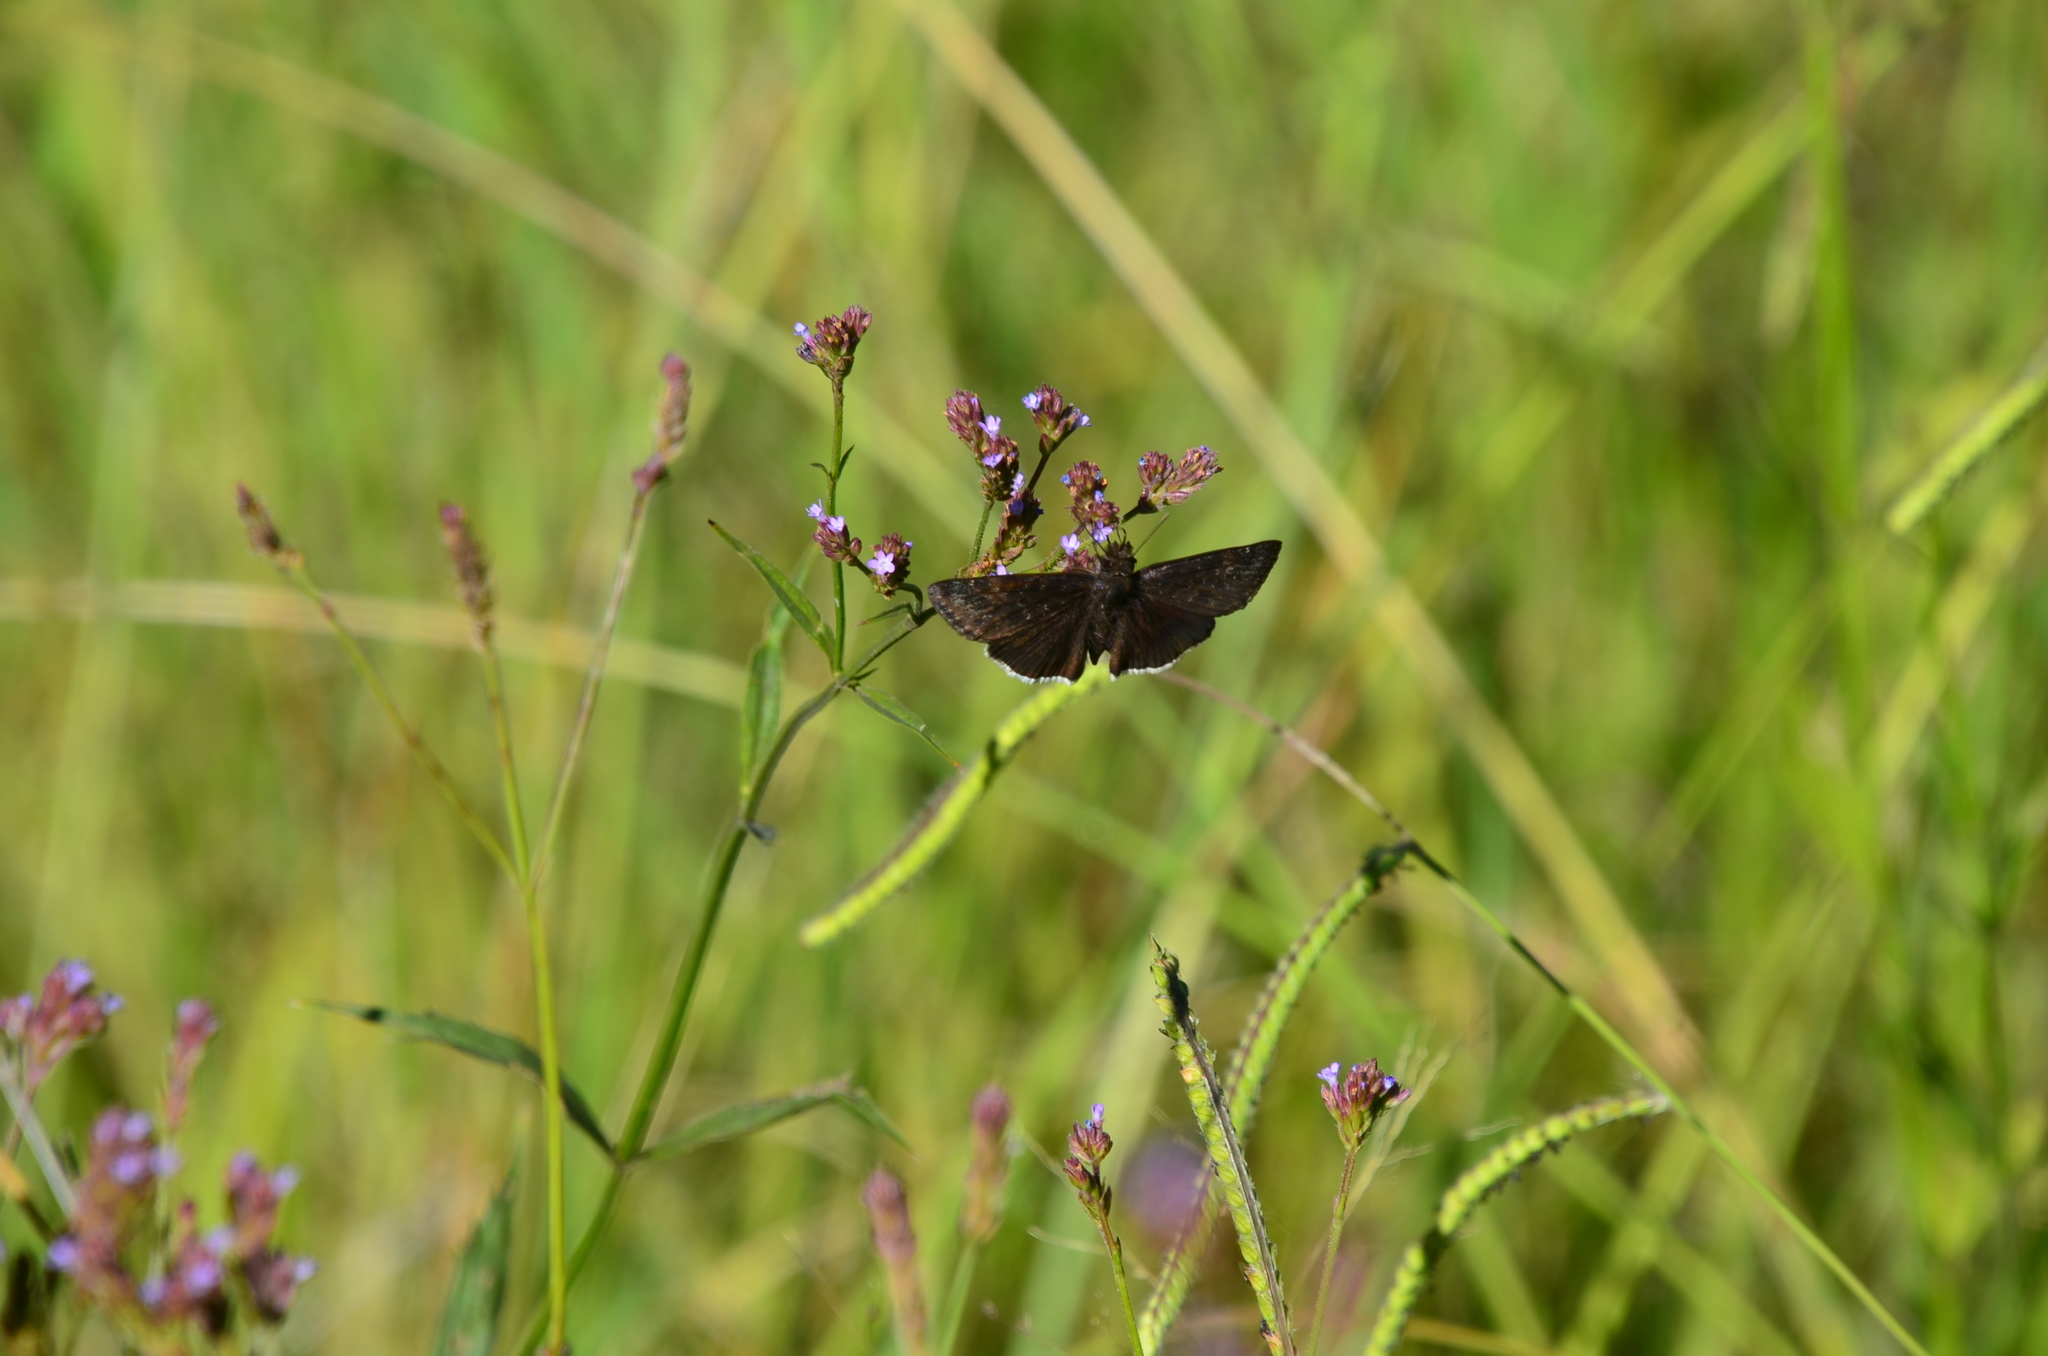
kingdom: Animalia
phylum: Arthropoda
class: Insecta
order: Lepidoptera
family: Hesperiidae
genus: Erynnis
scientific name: Erynnis funeralis
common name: Funereal duskywing
